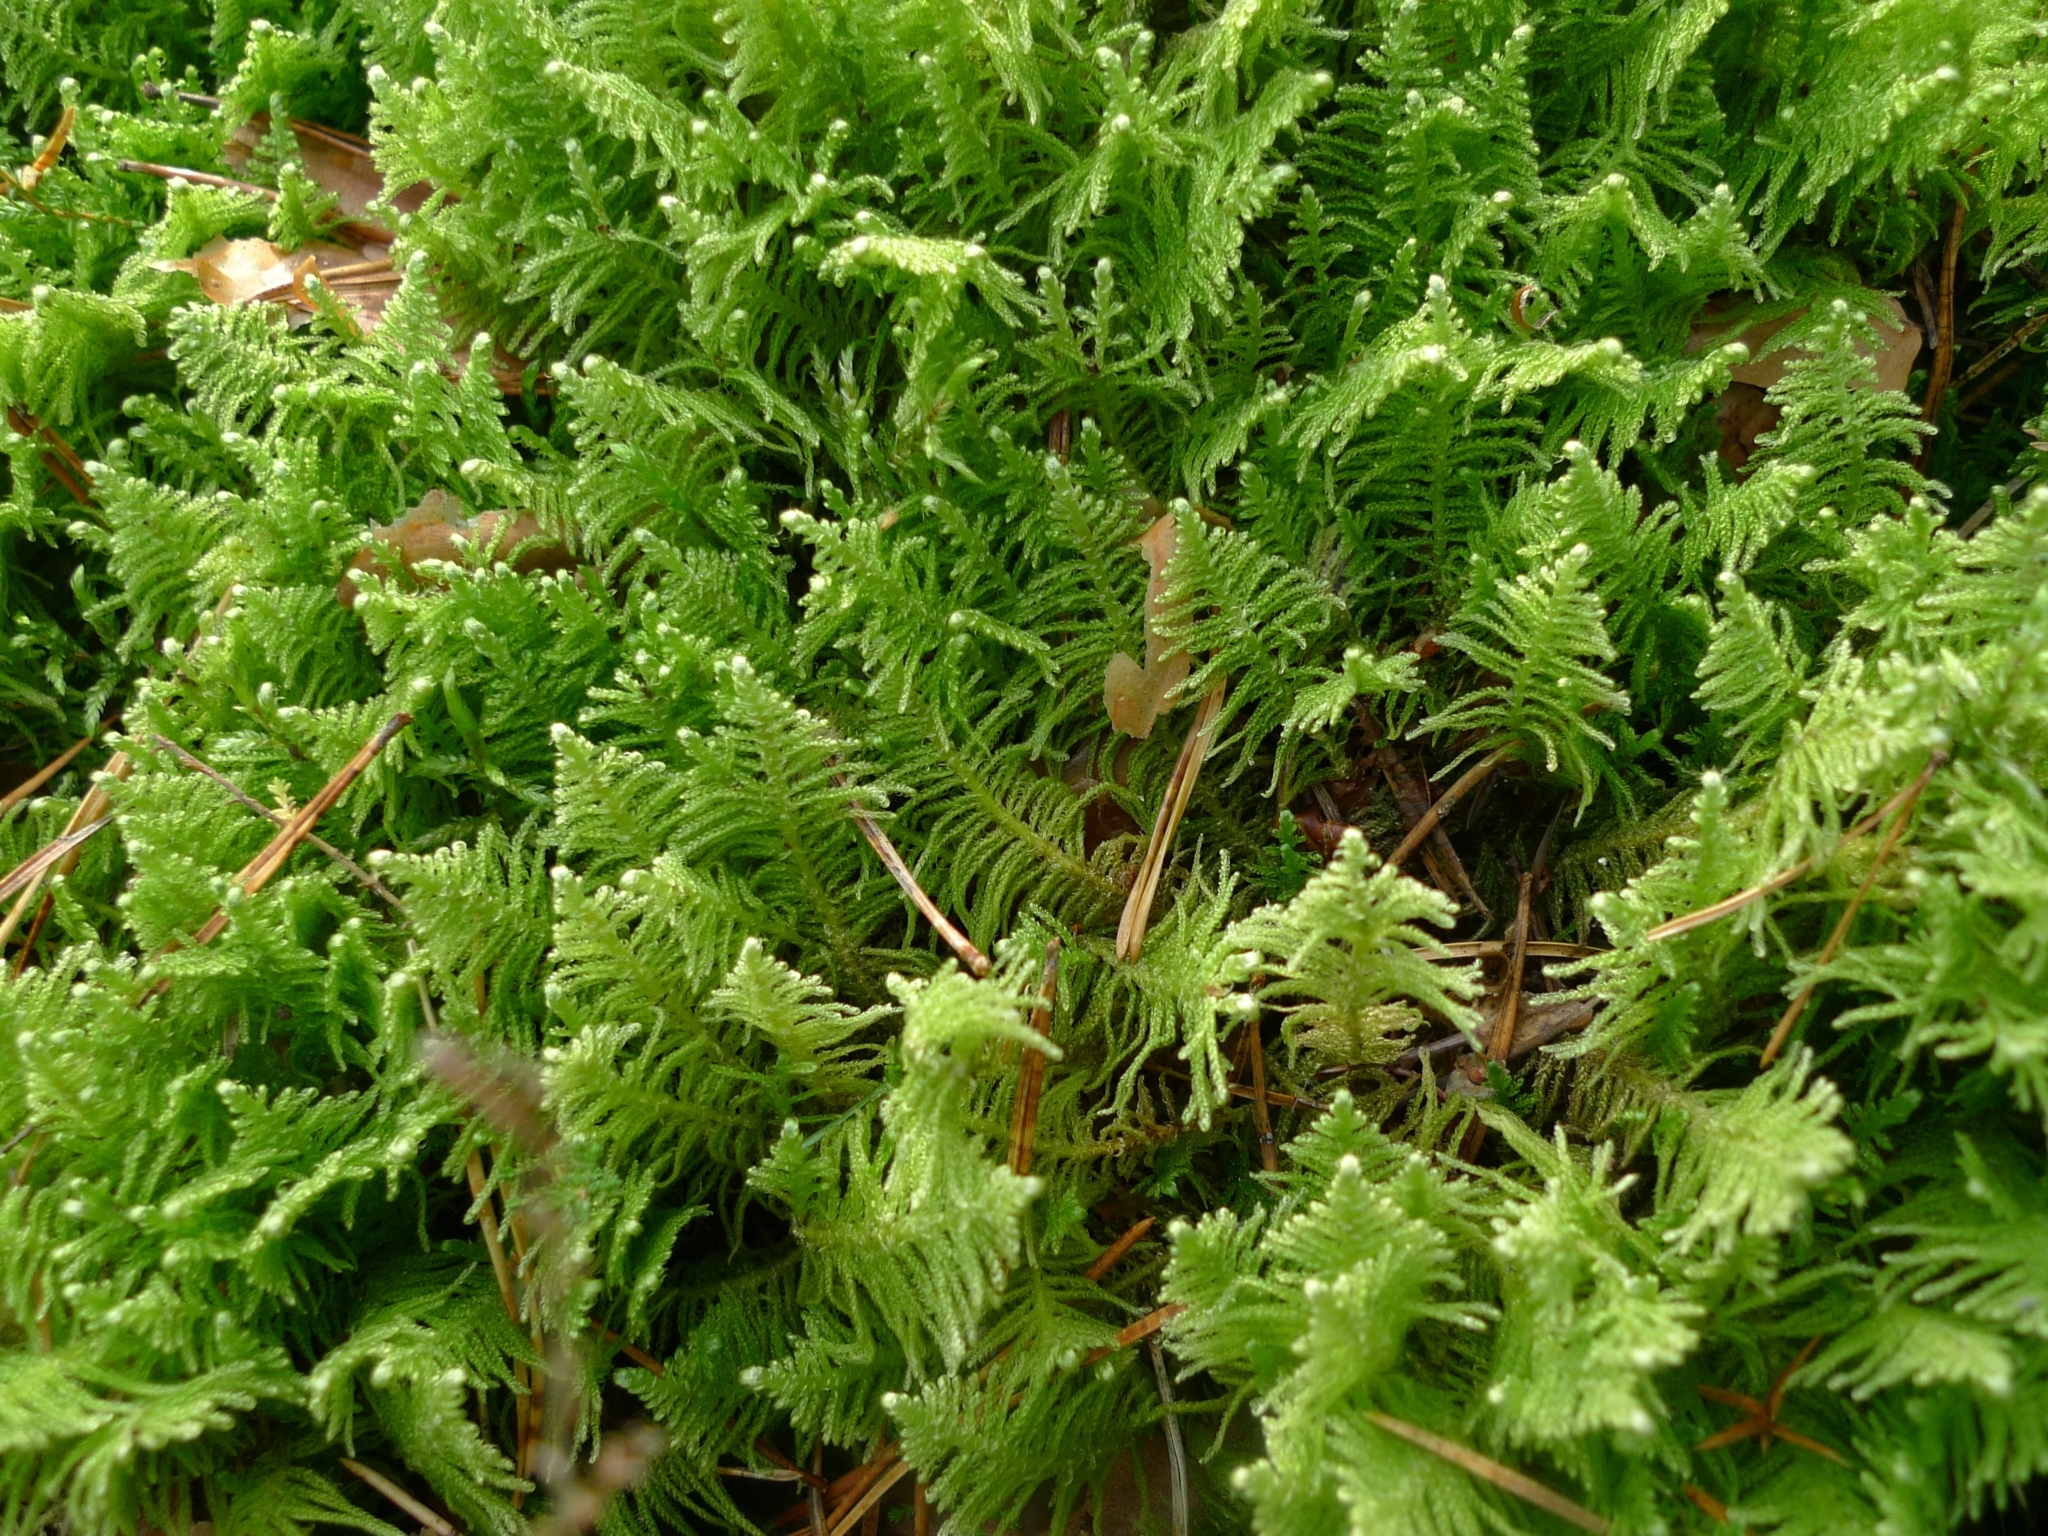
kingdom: Plantae
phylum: Bryophyta
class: Bryopsida
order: Hypnales
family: Pylaisiaceae
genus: Ptilium
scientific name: Ptilium crista-castrensis
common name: Knight's plume moss
